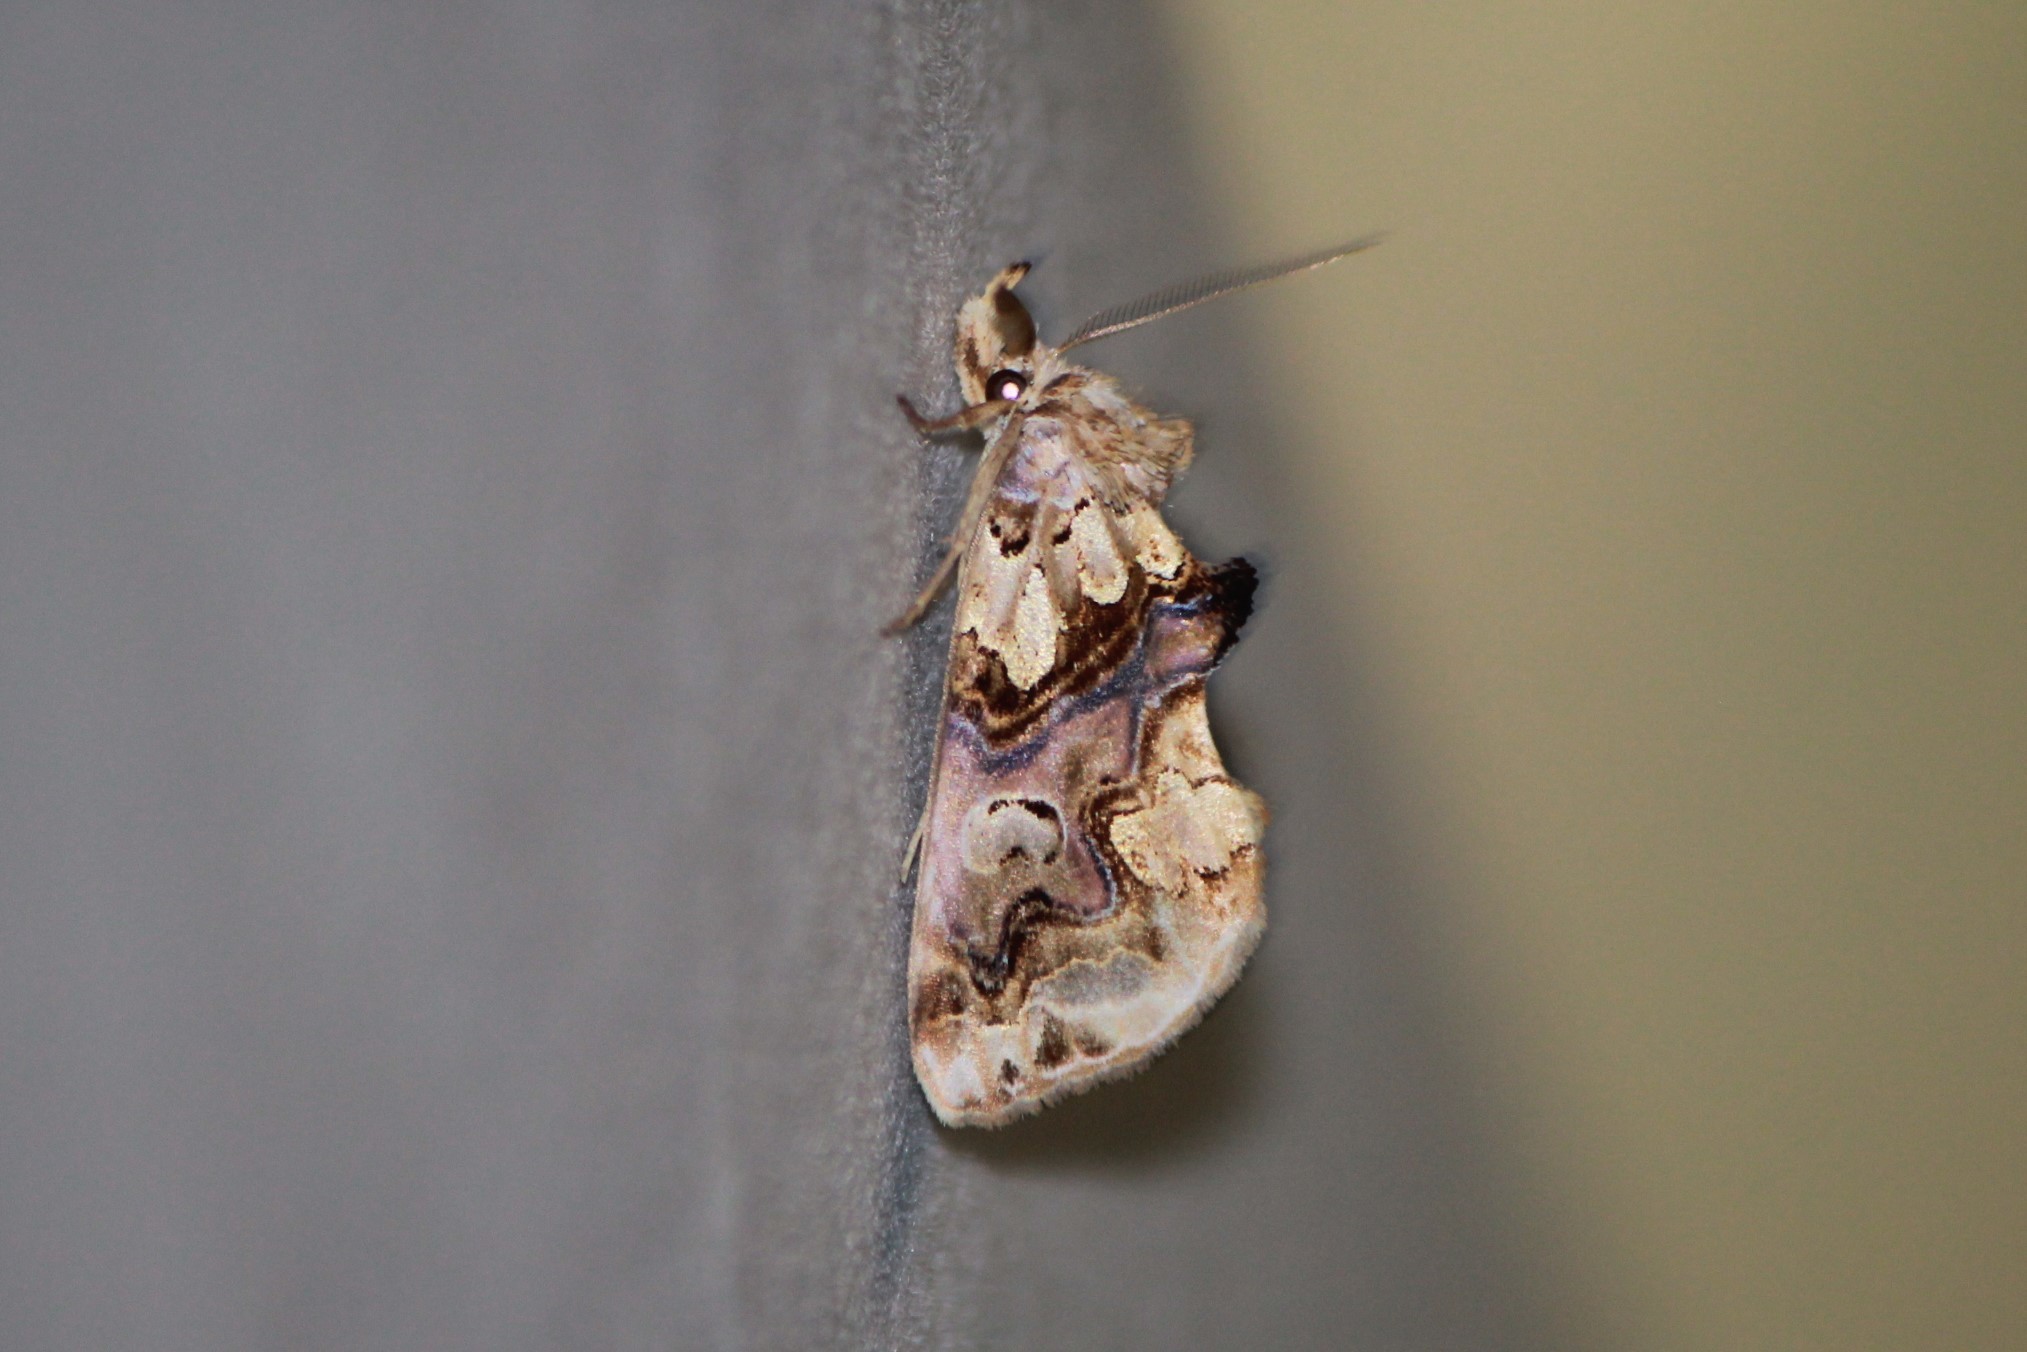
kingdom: Animalia
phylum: Arthropoda
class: Insecta
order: Lepidoptera
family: Erebidae
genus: Plusiodonta
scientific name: Plusiodonta compressipalpis
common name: Moonseed moth
